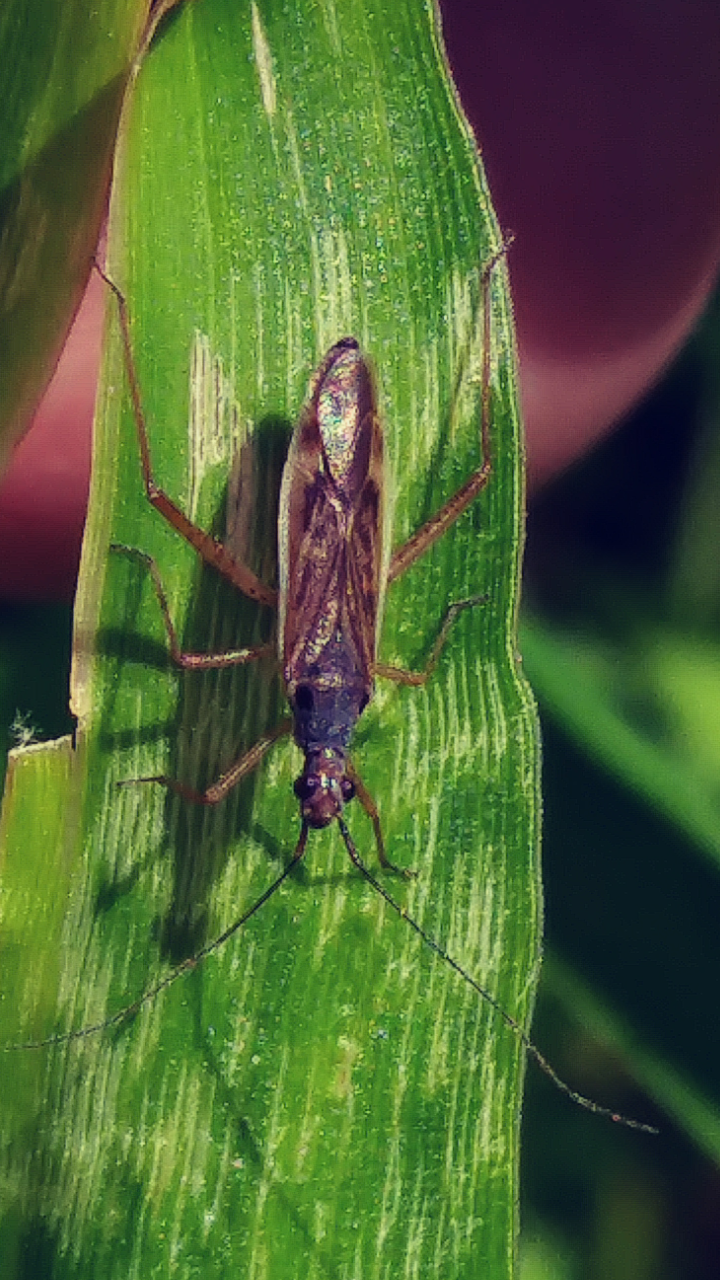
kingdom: Animalia
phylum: Arthropoda
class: Insecta
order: Hemiptera
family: Miridae
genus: Collaria
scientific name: Collaria oculata
